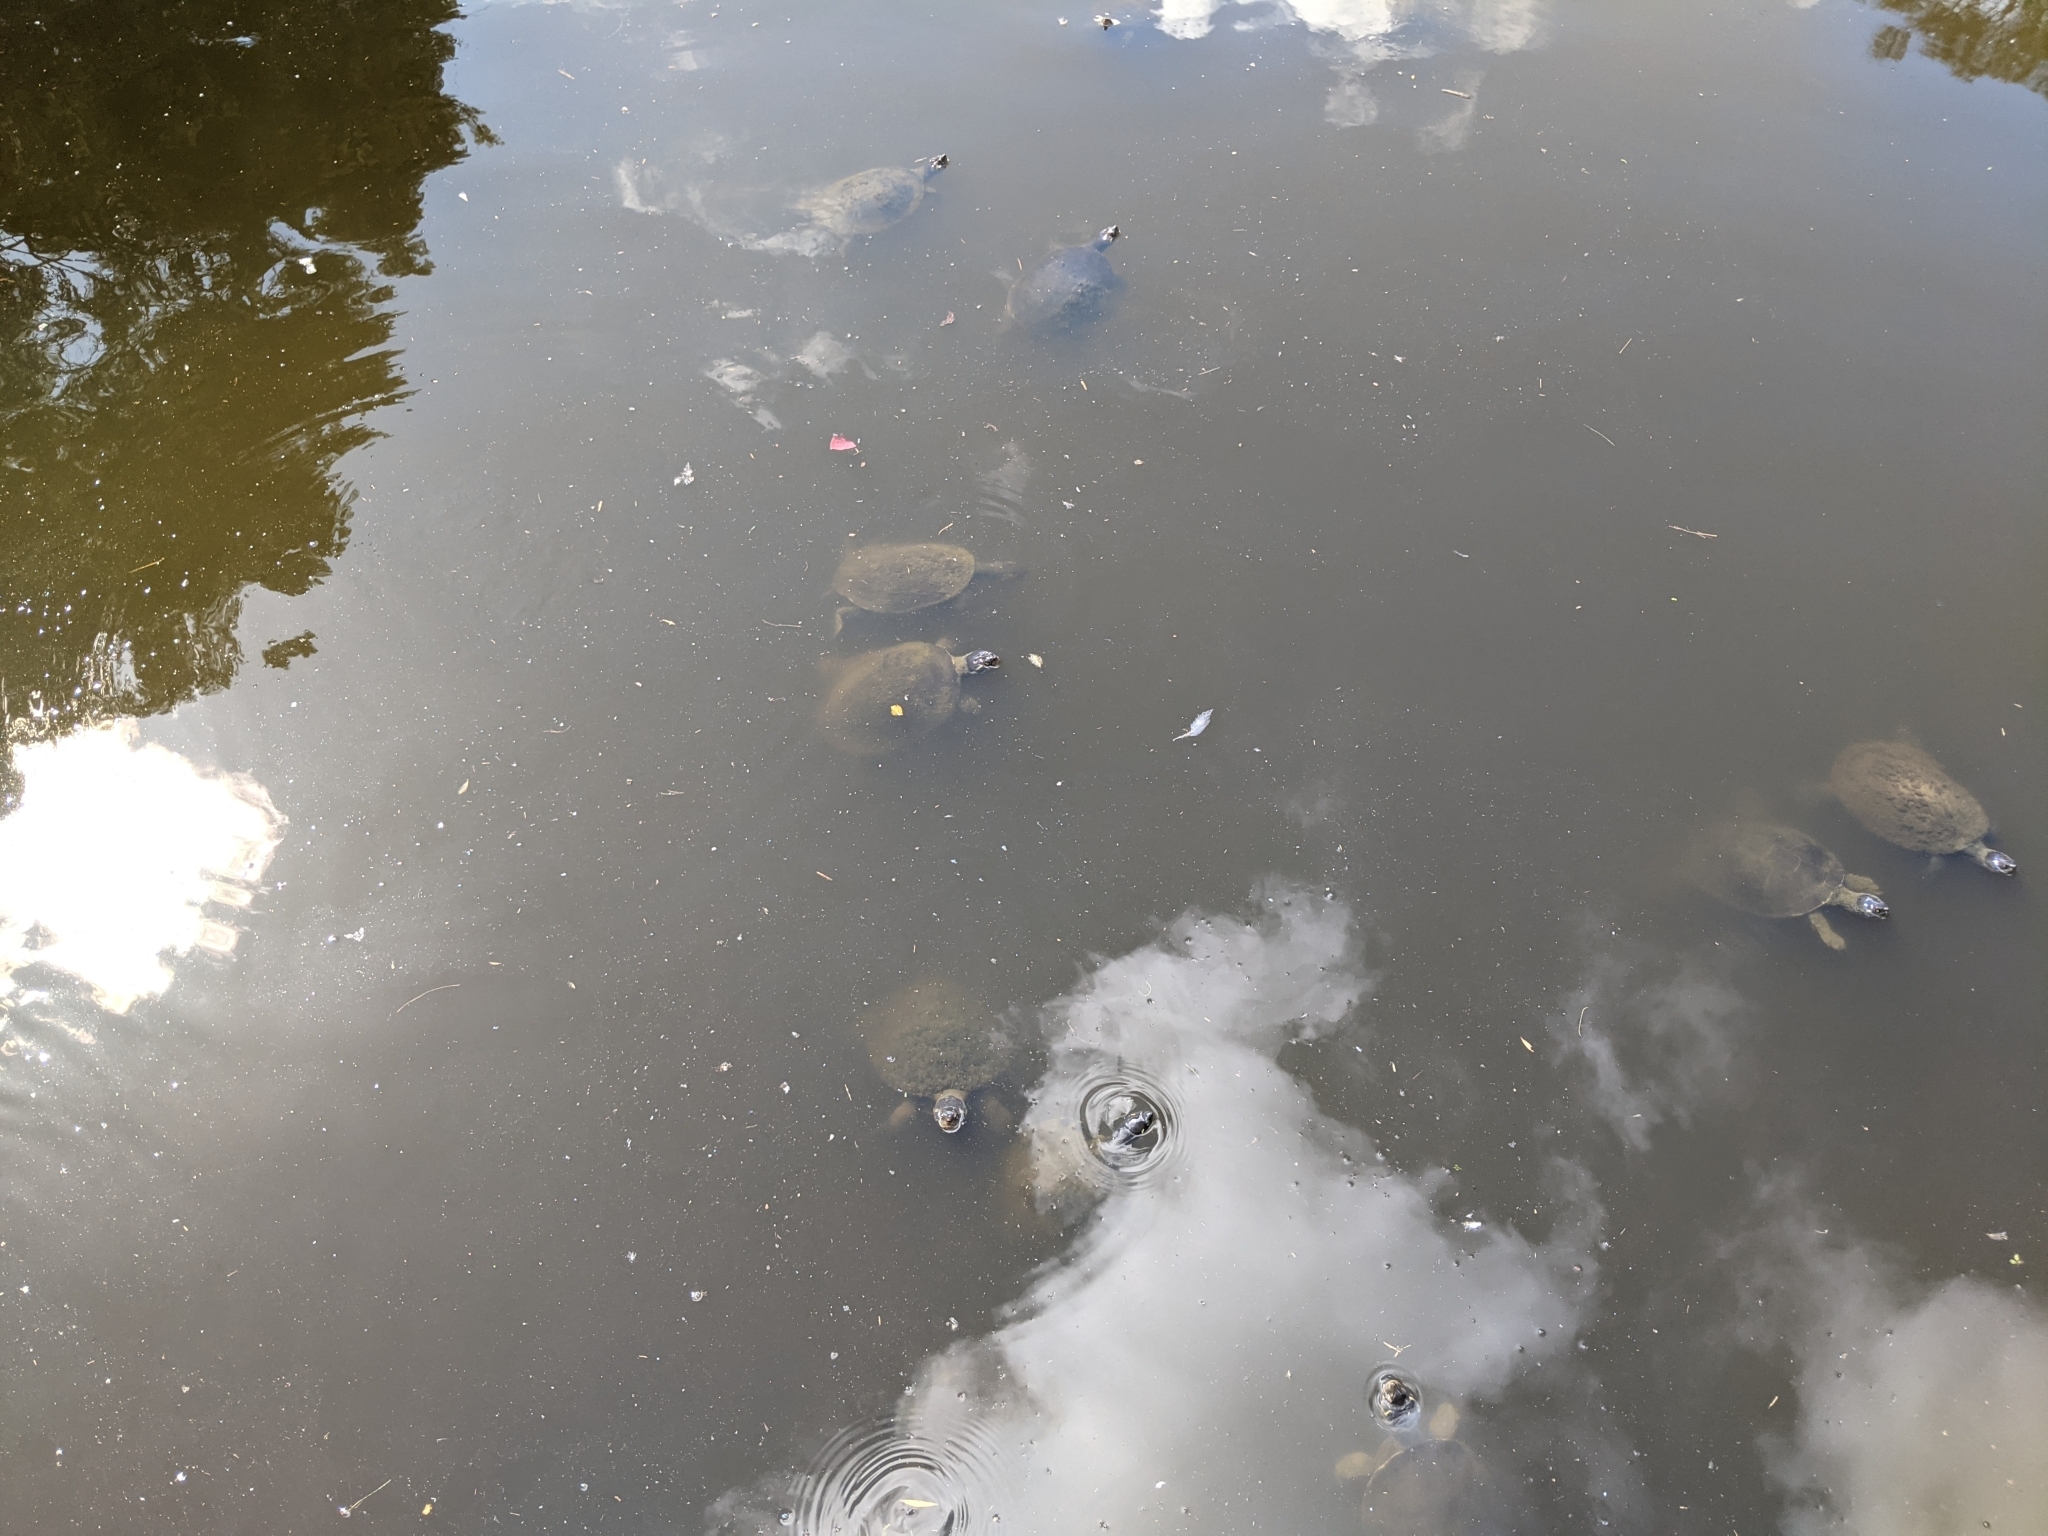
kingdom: Animalia
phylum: Chordata
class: Testudines
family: Chelidae
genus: Emydura
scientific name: Emydura macquarii
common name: Murray river turtle
